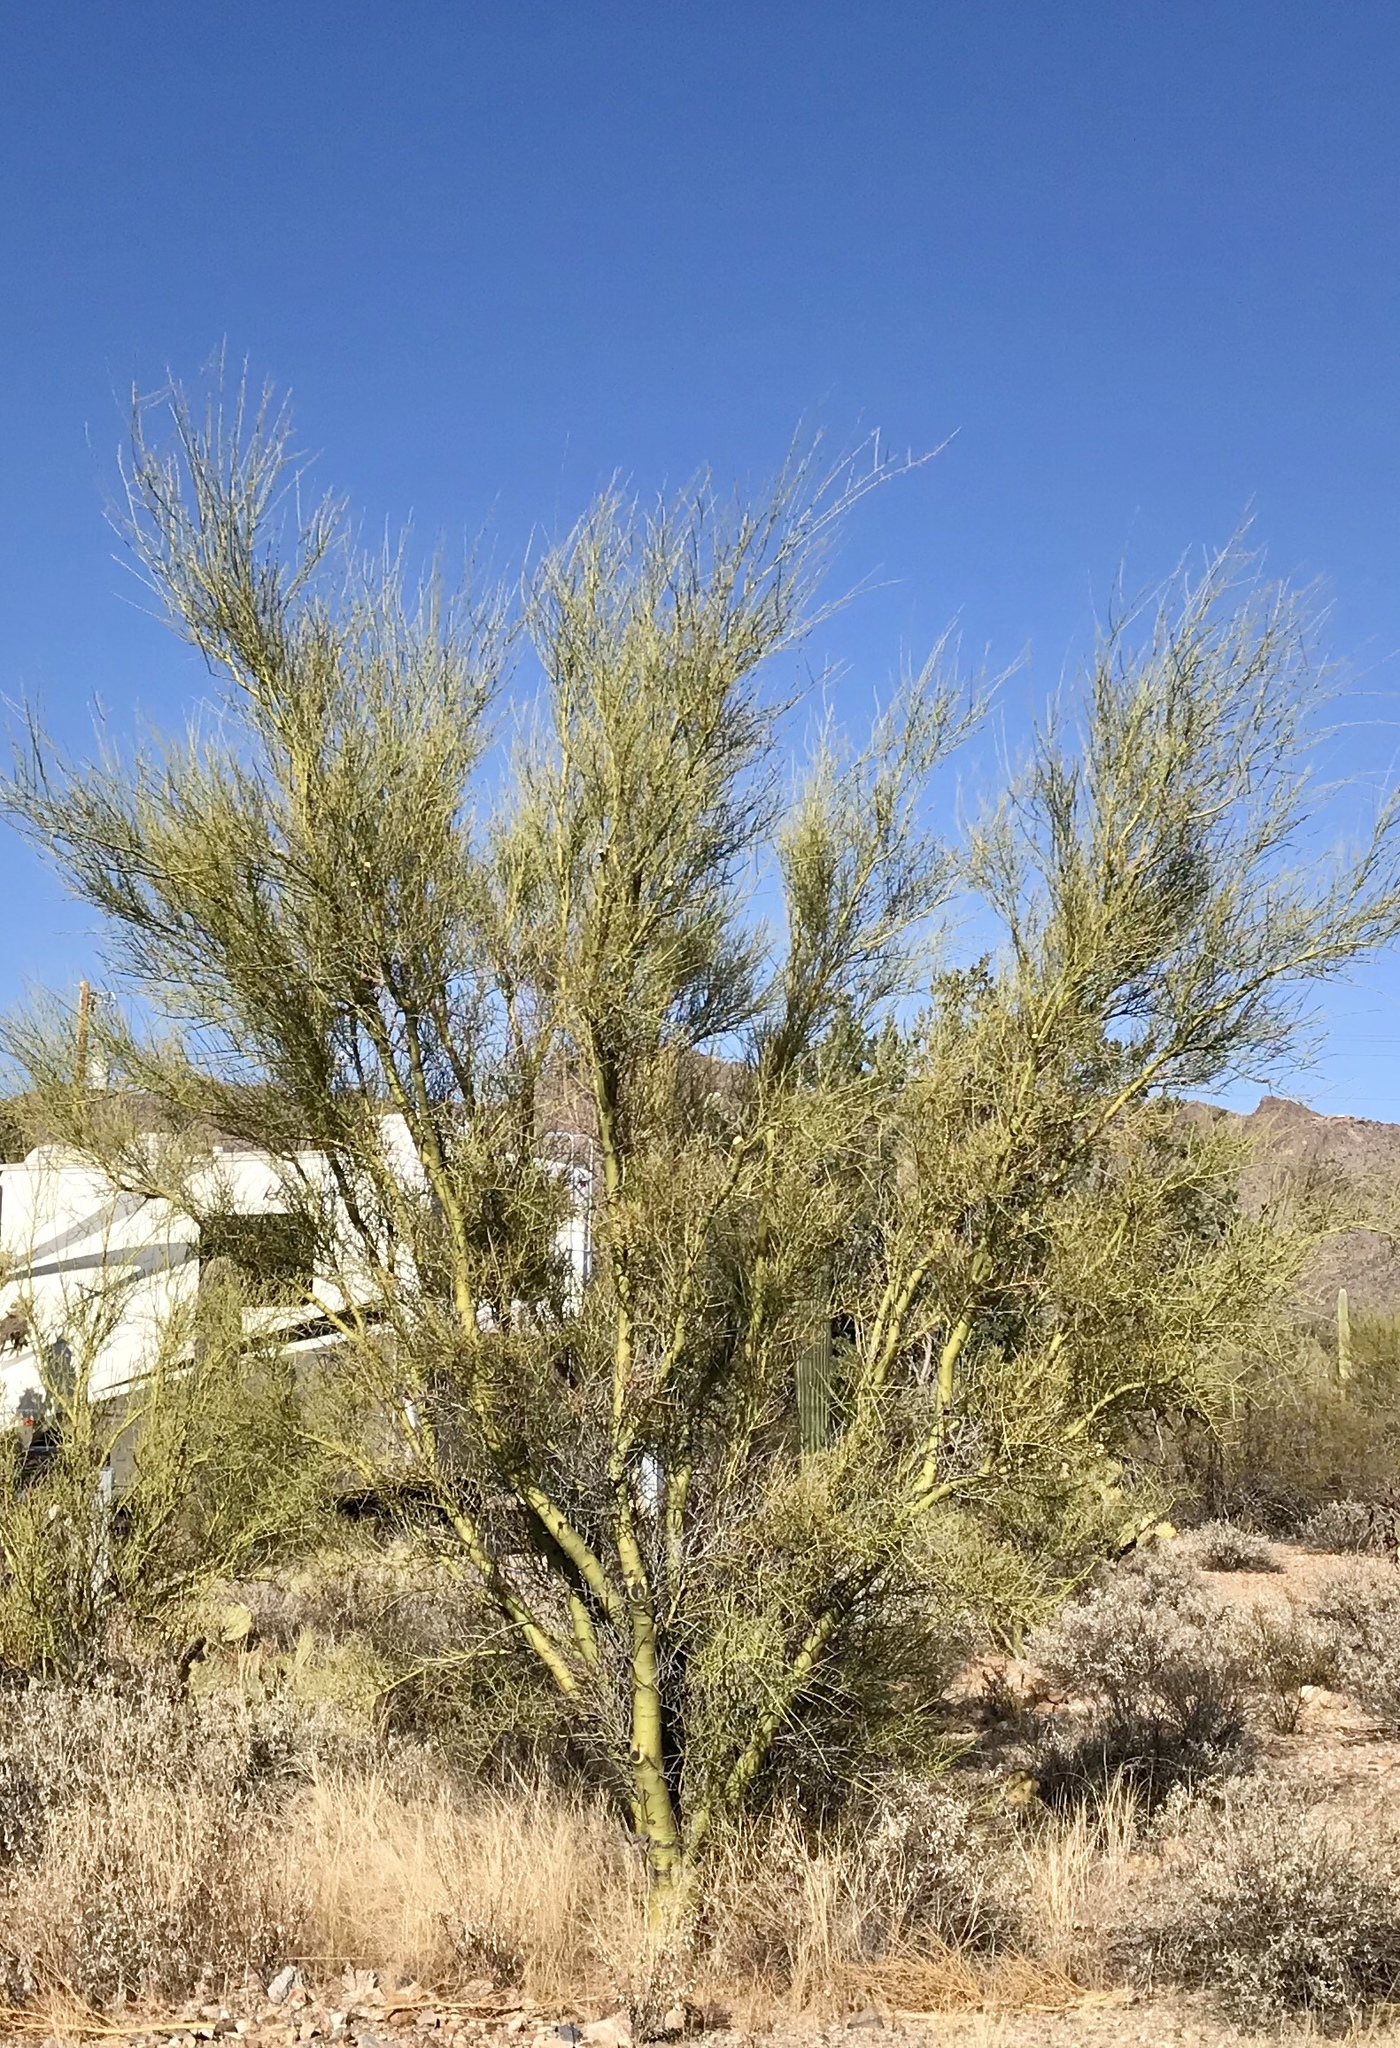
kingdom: Plantae
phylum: Tracheophyta
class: Magnoliopsida
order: Fabales
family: Fabaceae
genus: Parkinsonia
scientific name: Parkinsonia microphylla
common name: Yellow paloverde
